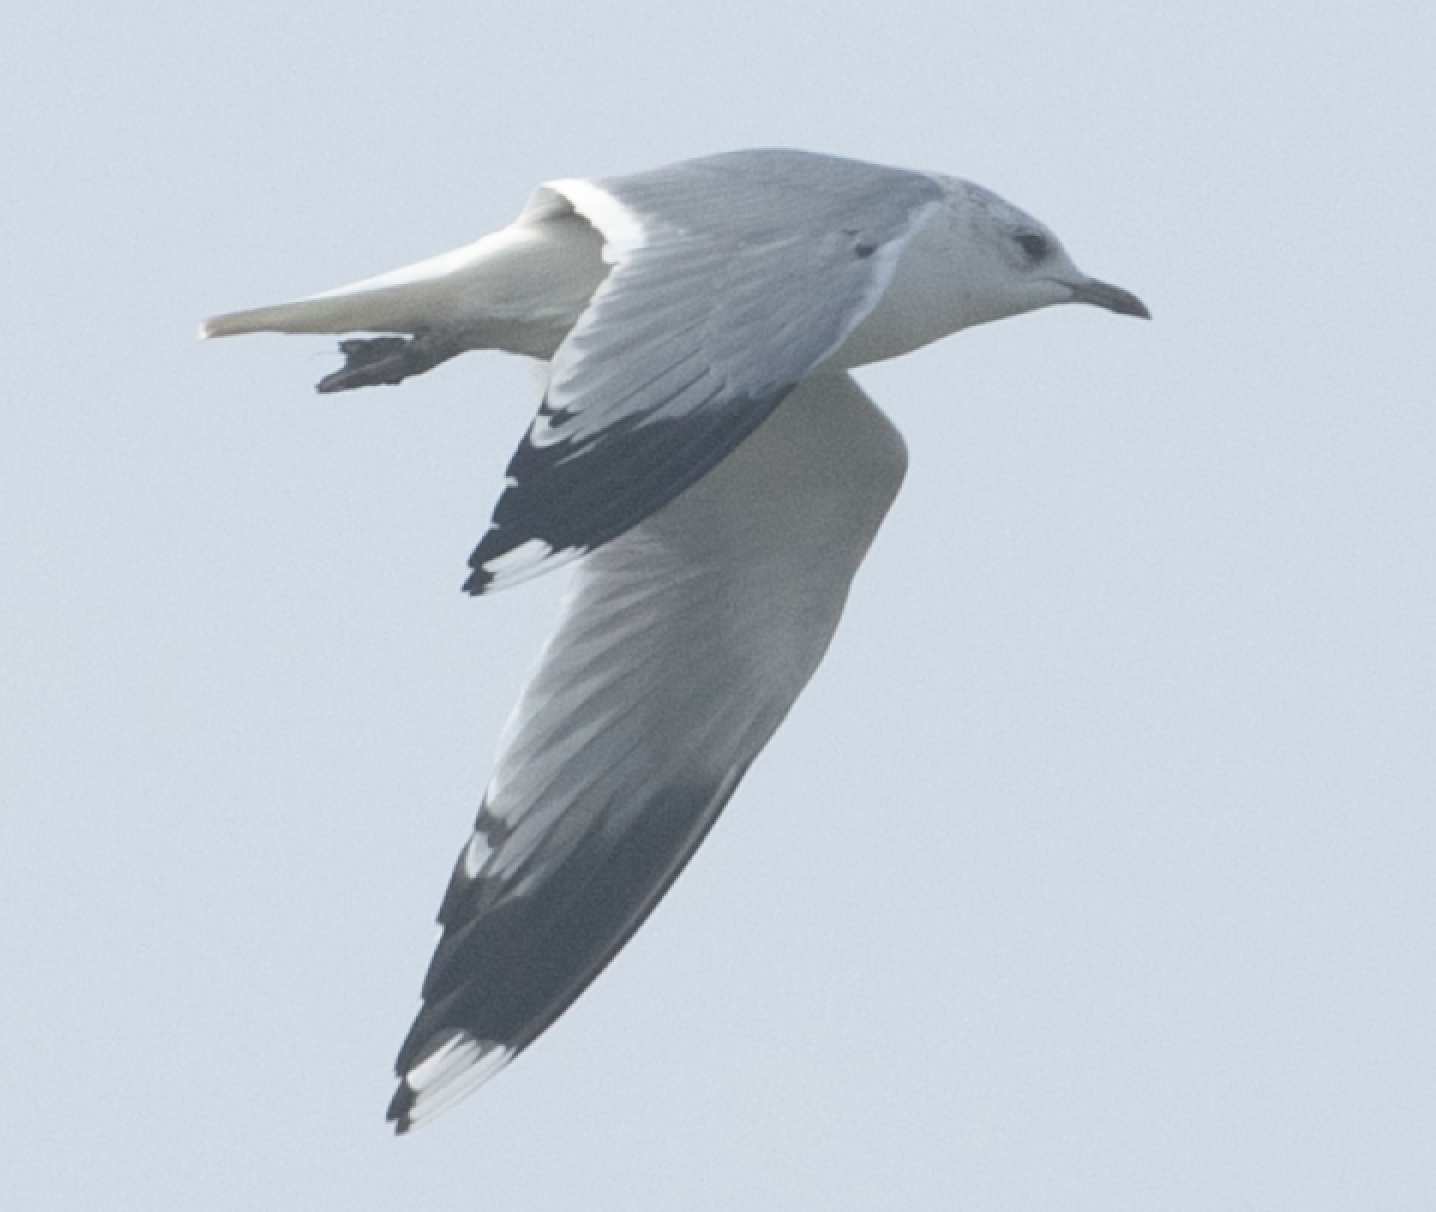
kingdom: Animalia
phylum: Chordata
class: Aves
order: Charadriiformes
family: Laridae
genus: Larus
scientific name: Larus canus
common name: Mew gull
